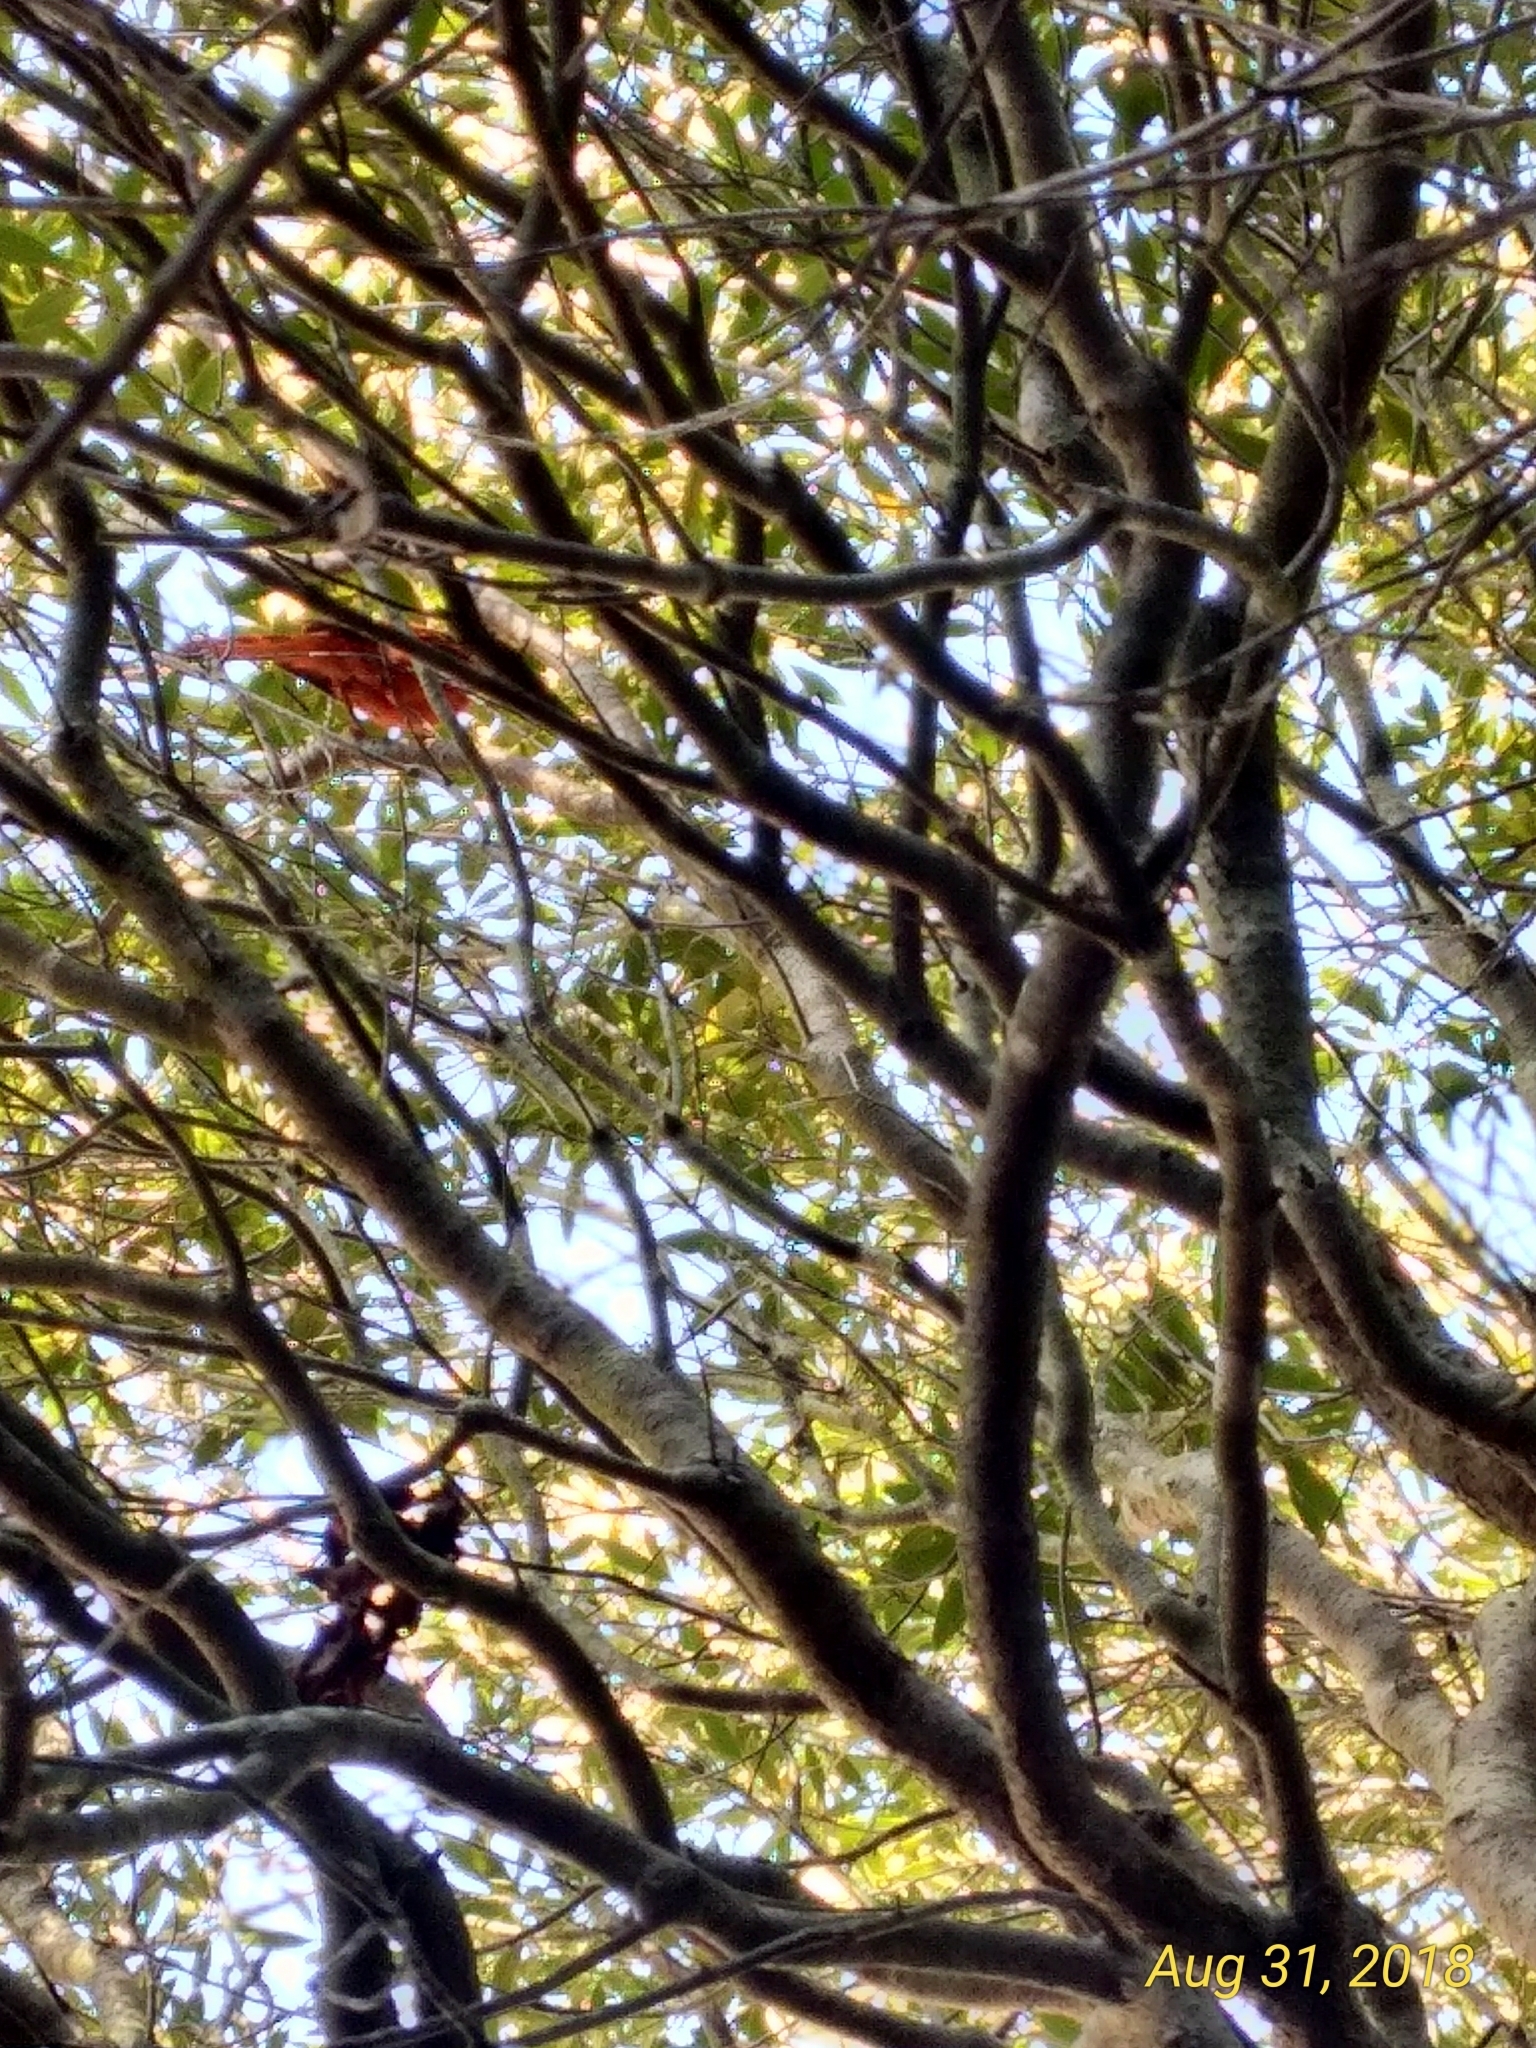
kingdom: Animalia
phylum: Chordata
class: Aves
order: Passeriformes
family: Cardinalidae
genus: Cardinalis
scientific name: Cardinalis cardinalis
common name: Northern cardinal
